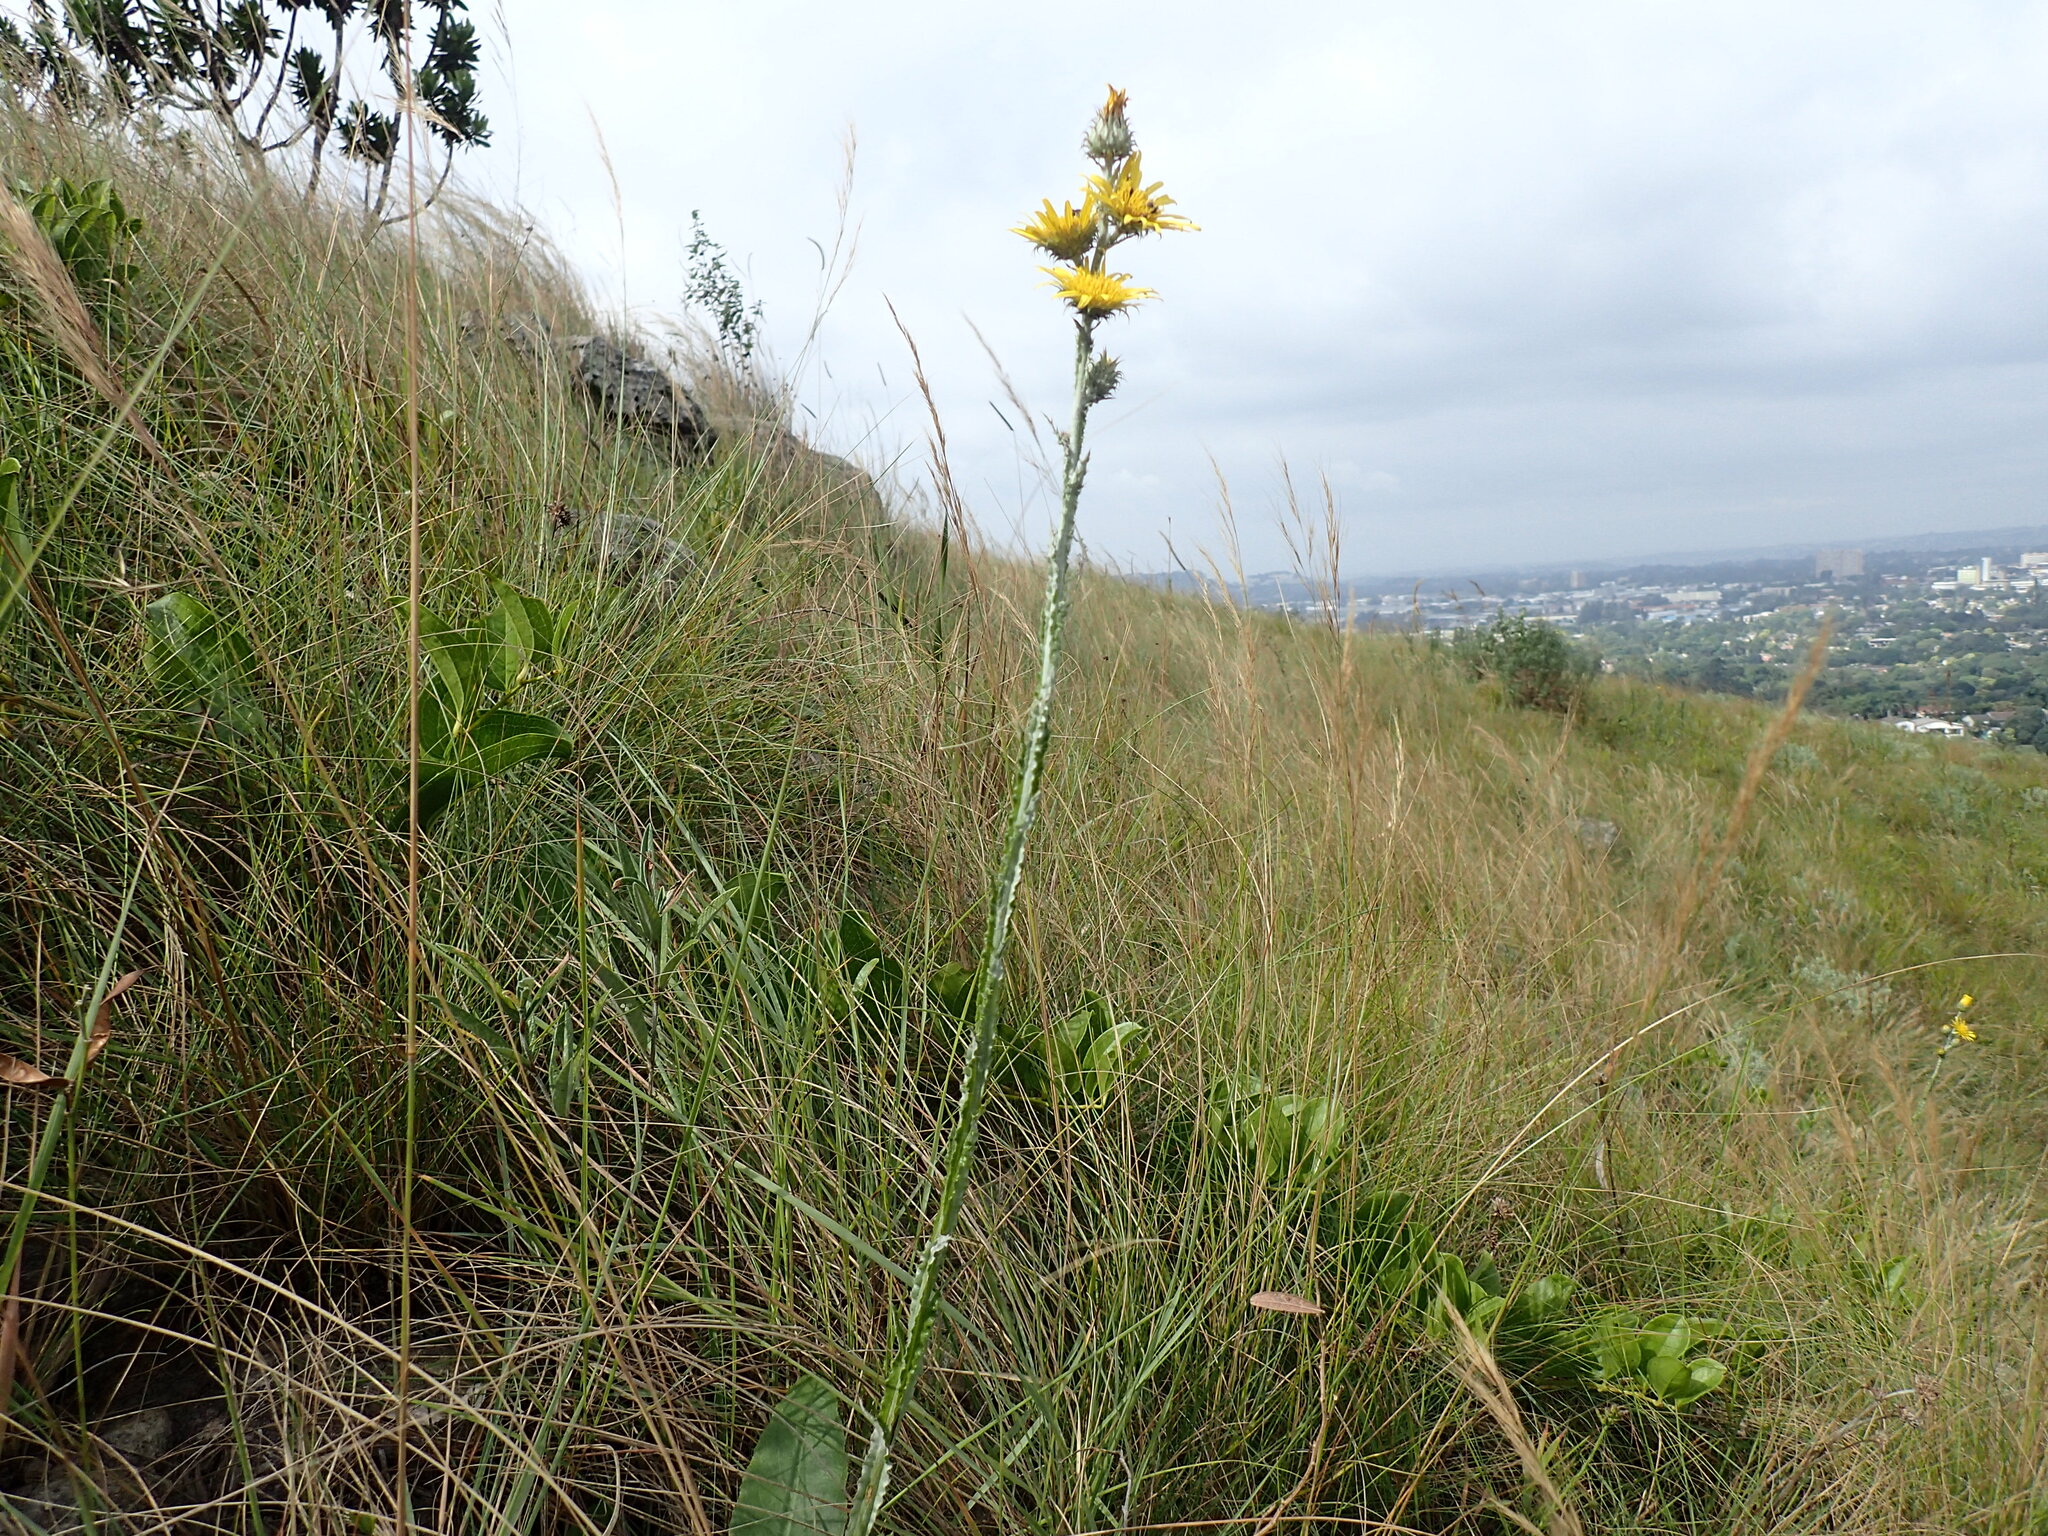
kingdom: Plantae
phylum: Tracheophyta
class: Magnoliopsida
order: Asterales
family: Asteraceae
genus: Berkheya
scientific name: Berkheya rhapontica
